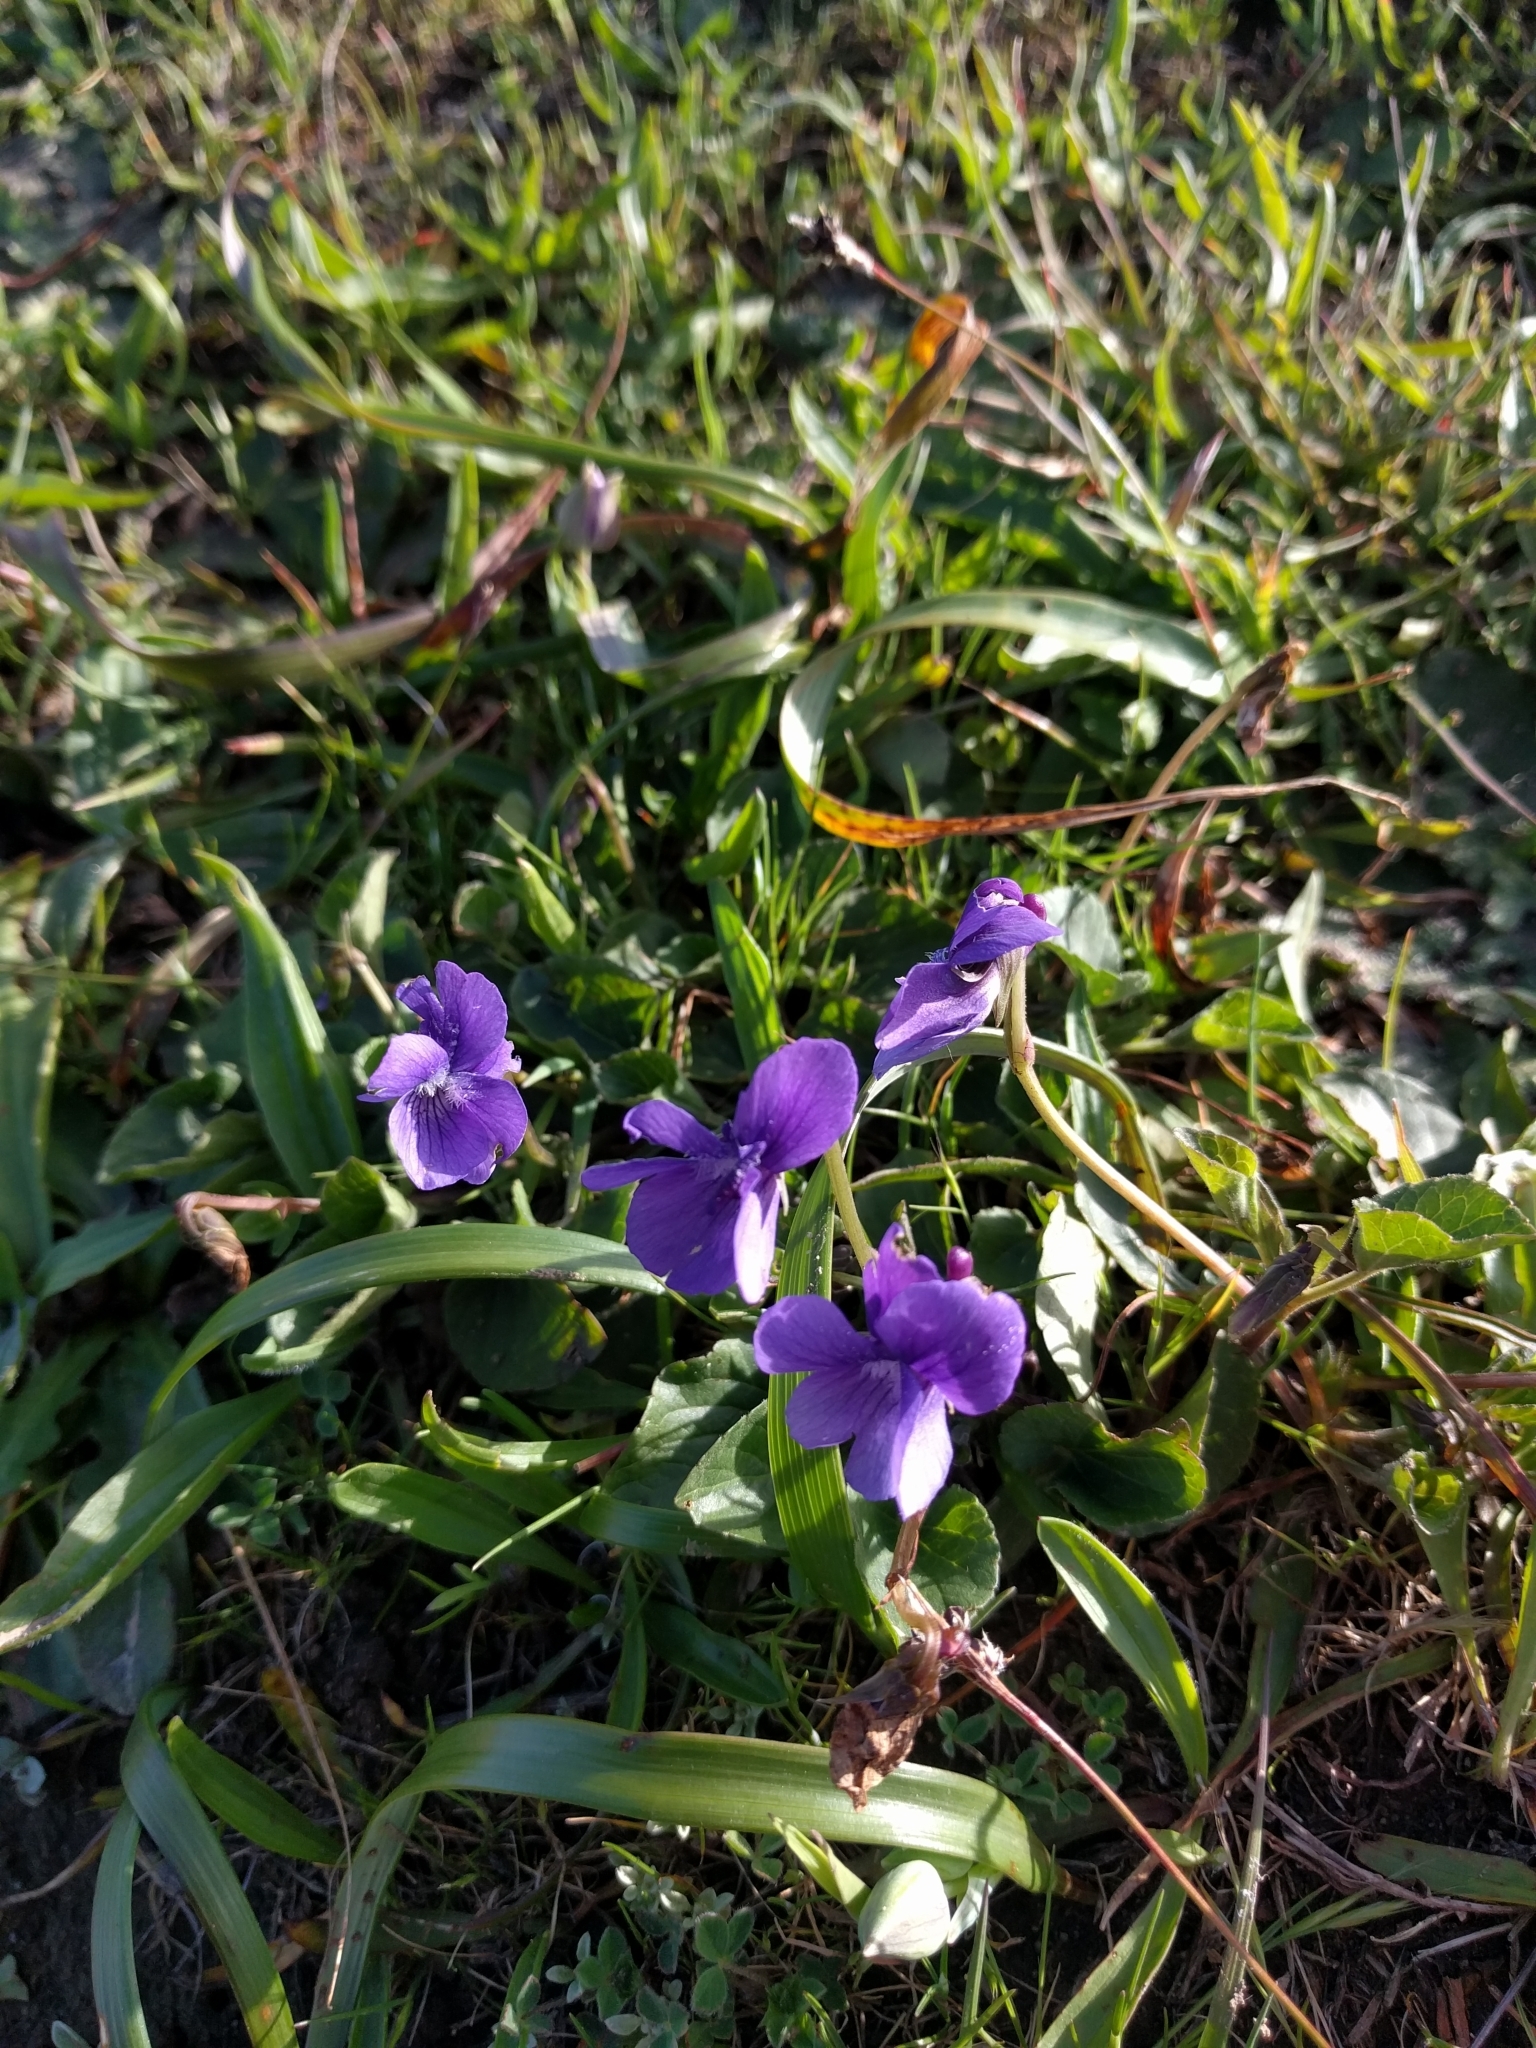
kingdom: Plantae
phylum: Tracheophyta
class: Magnoliopsida
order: Malpighiales
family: Violaceae
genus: Viola
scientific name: Viola adunca
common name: Sand violet
